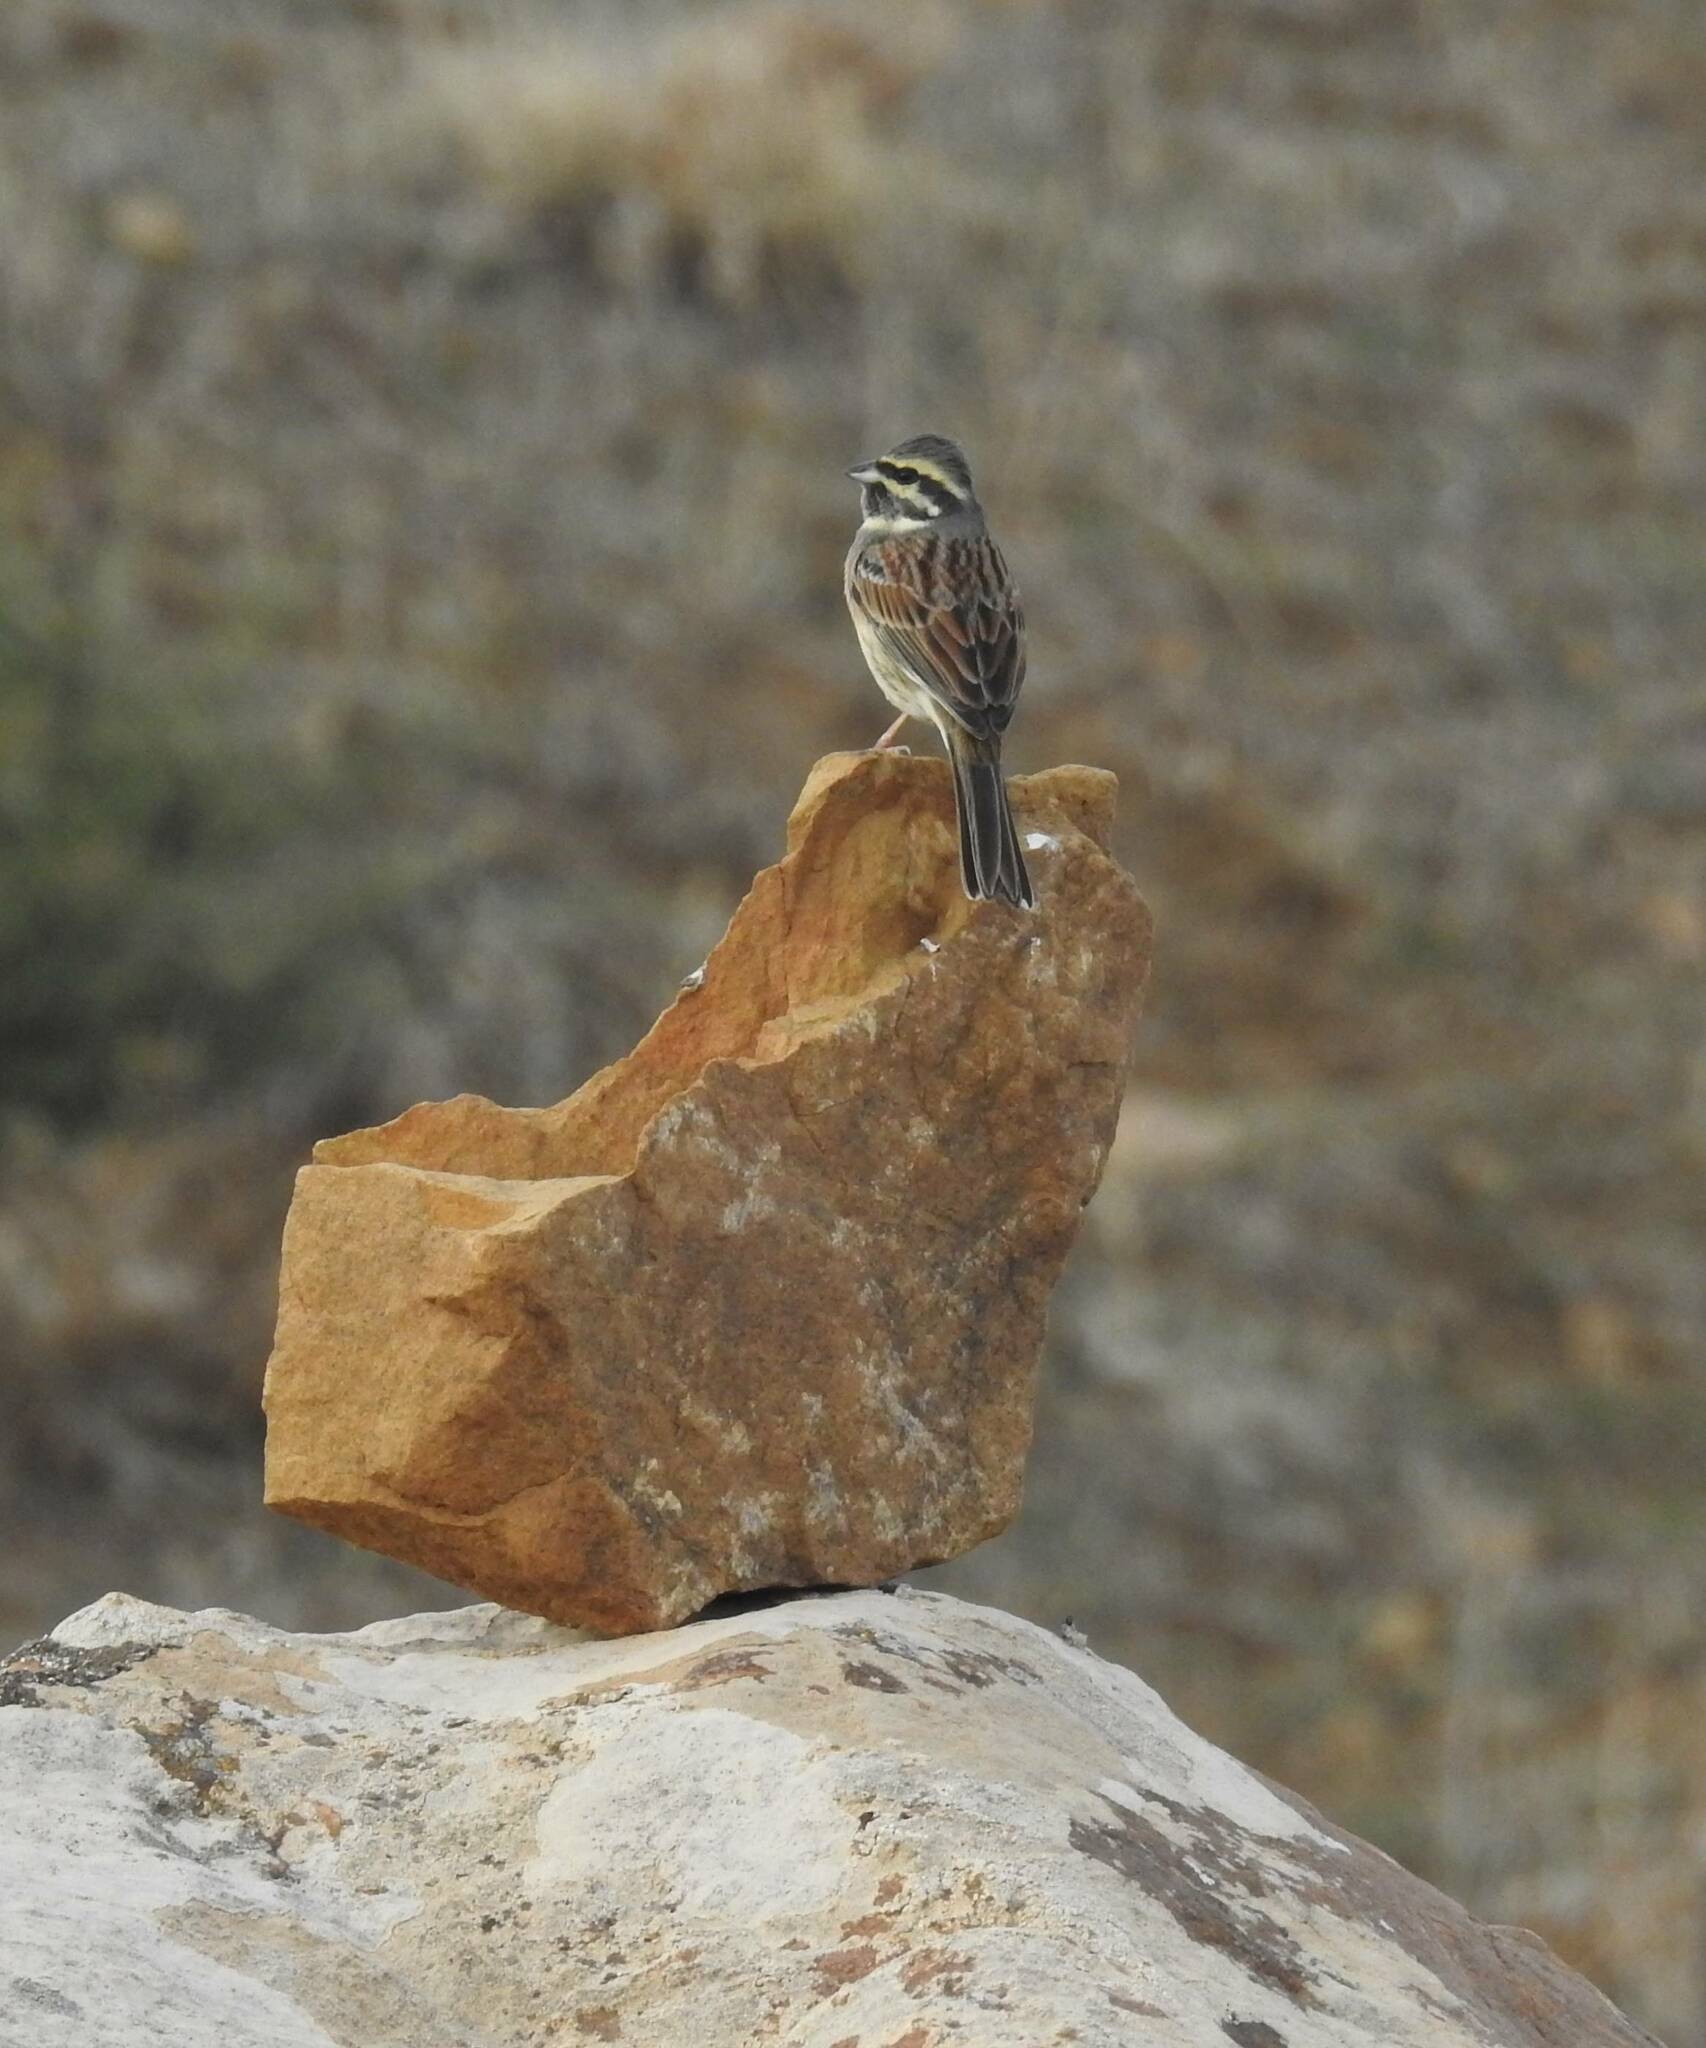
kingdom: Animalia
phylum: Chordata
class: Aves
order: Passeriformes
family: Emberizidae
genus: Emberiza
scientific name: Emberiza cirlus
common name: Cirl bunting
